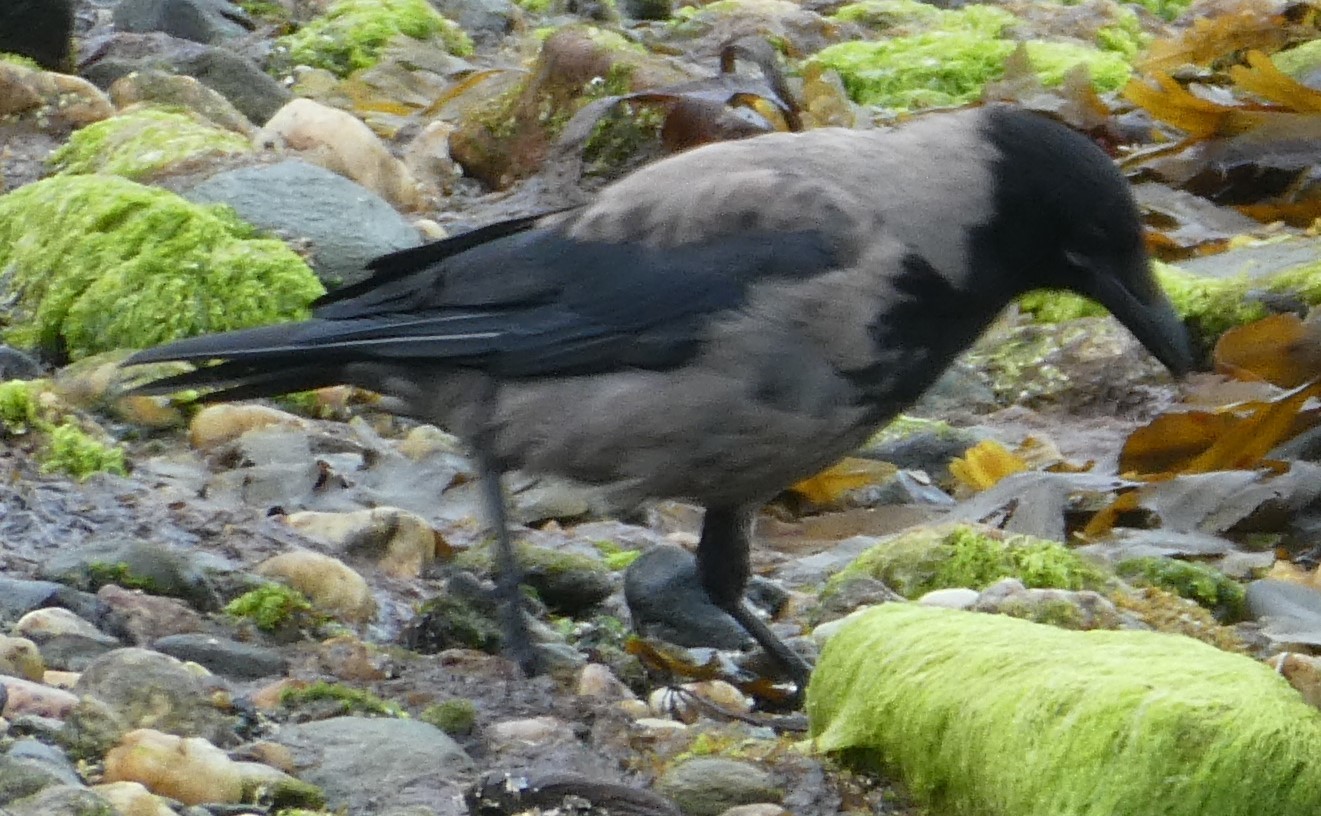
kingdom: Animalia
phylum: Chordata
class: Aves
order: Passeriformes
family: Corvidae
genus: Corvus
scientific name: Corvus cornix
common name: Hooded crow
